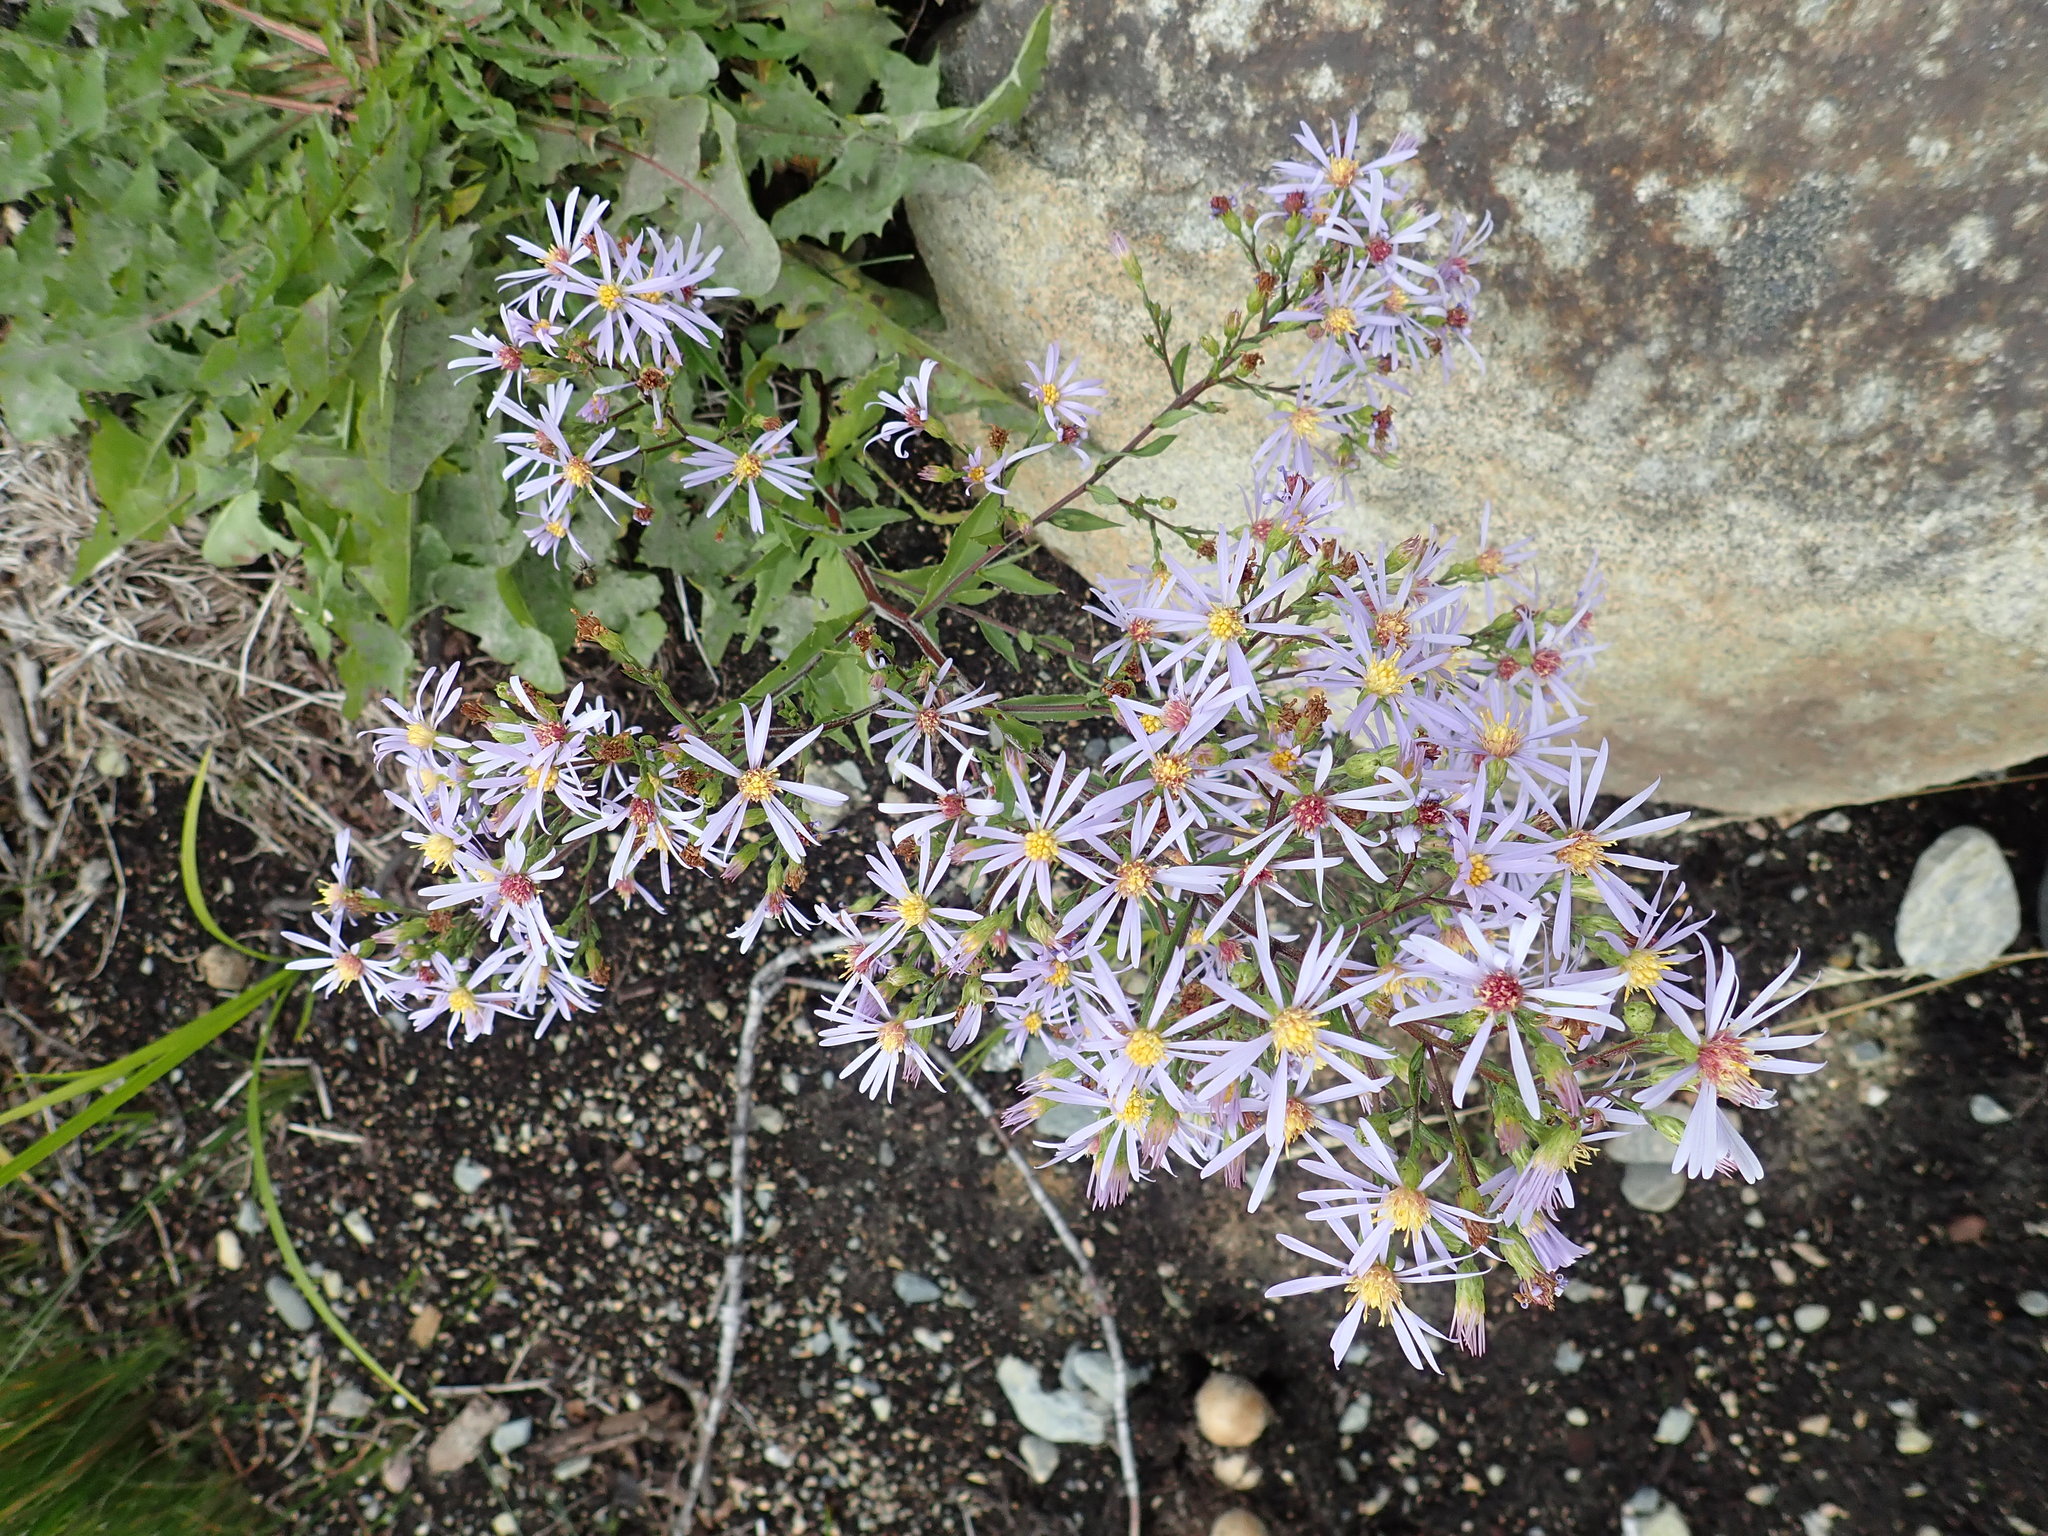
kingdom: Plantae
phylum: Tracheophyta
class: Magnoliopsida
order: Asterales
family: Asteraceae
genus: Symphyotrichum
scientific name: Symphyotrichum ciliolatum
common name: Fringed blue aster
